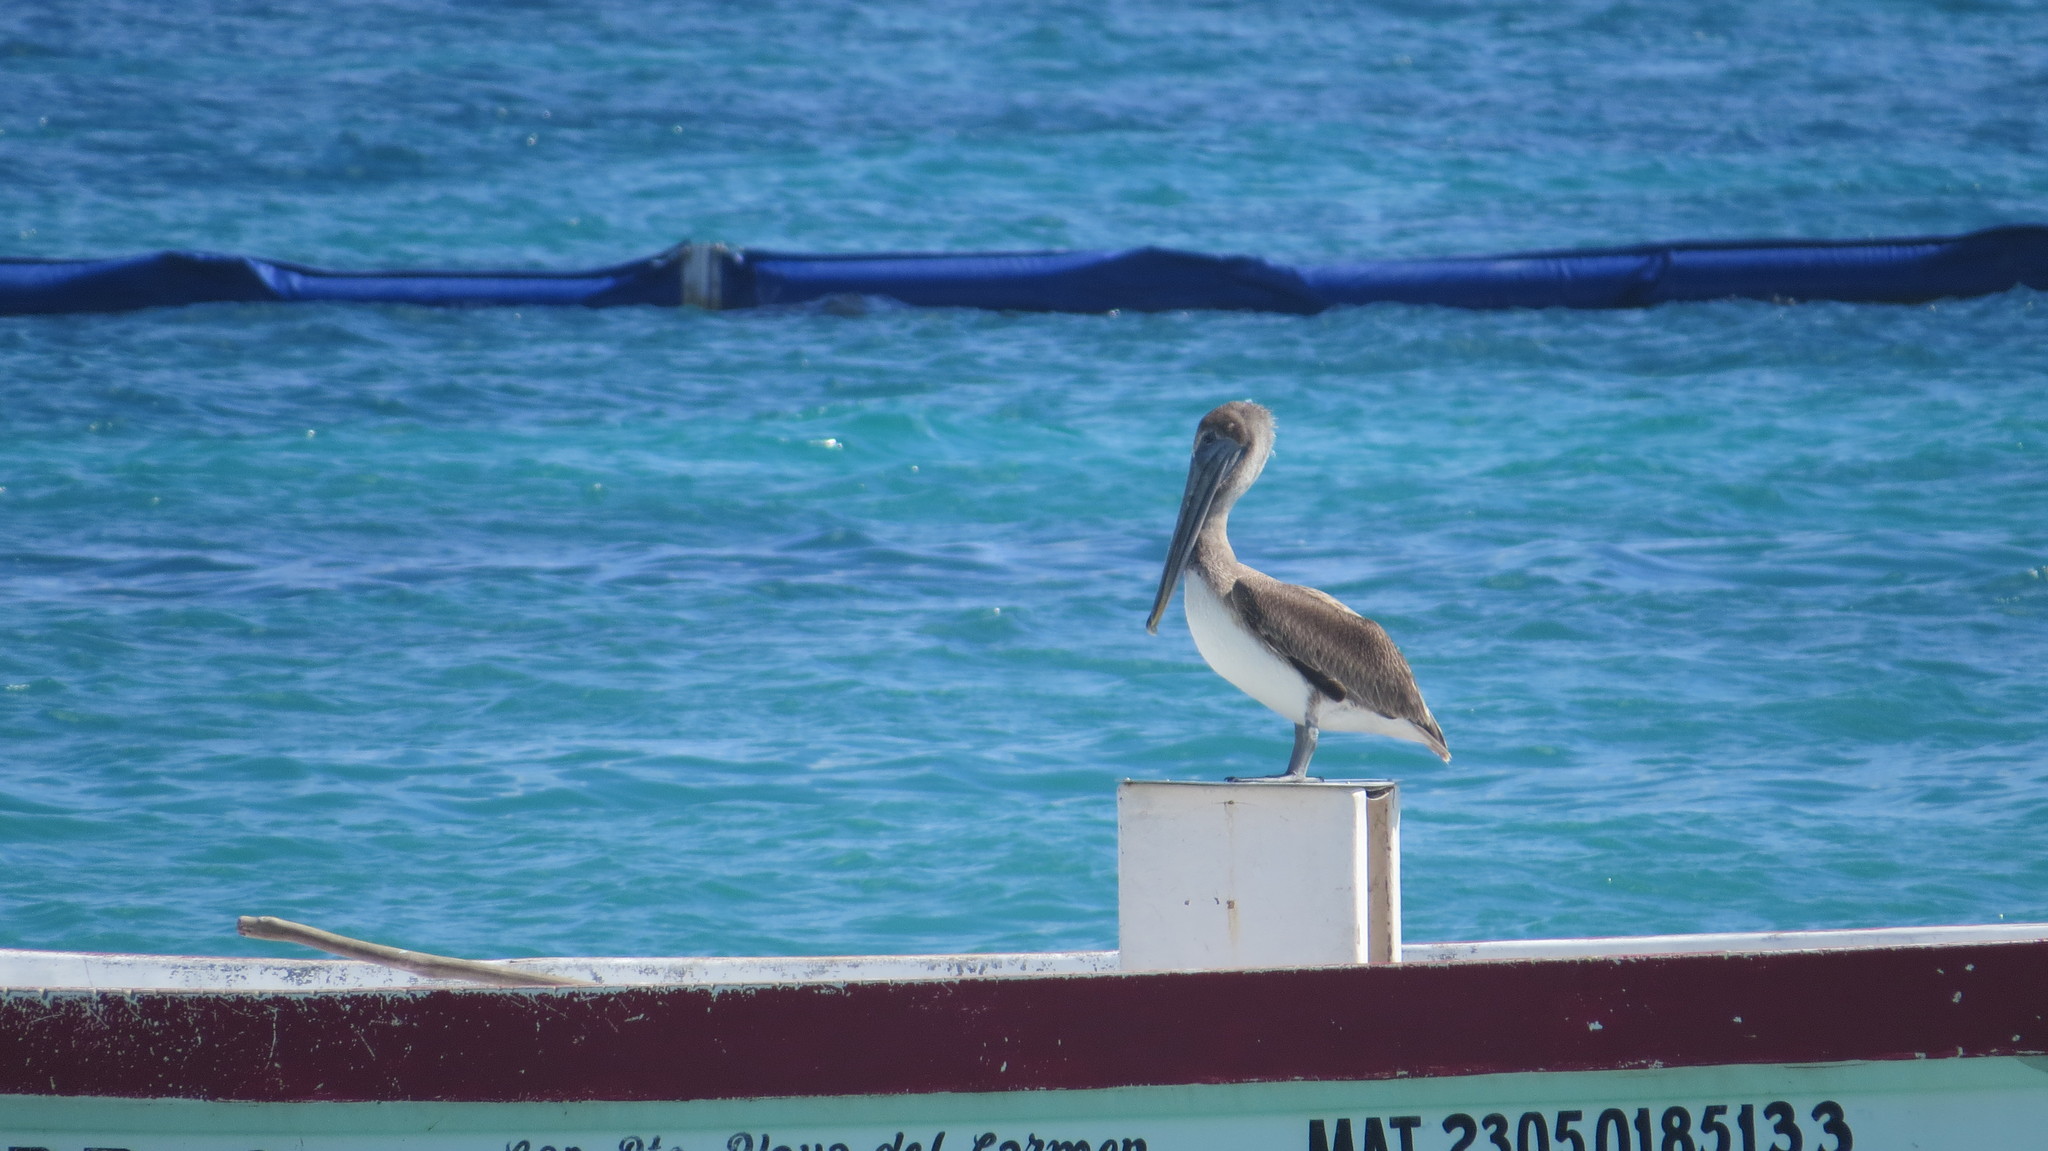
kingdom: Animalia
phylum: Chordata
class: Aves
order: Pelecaniformes
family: Pelecanidae
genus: Pelecanus
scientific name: Pelecanus occidentalis
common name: Brown pelican
